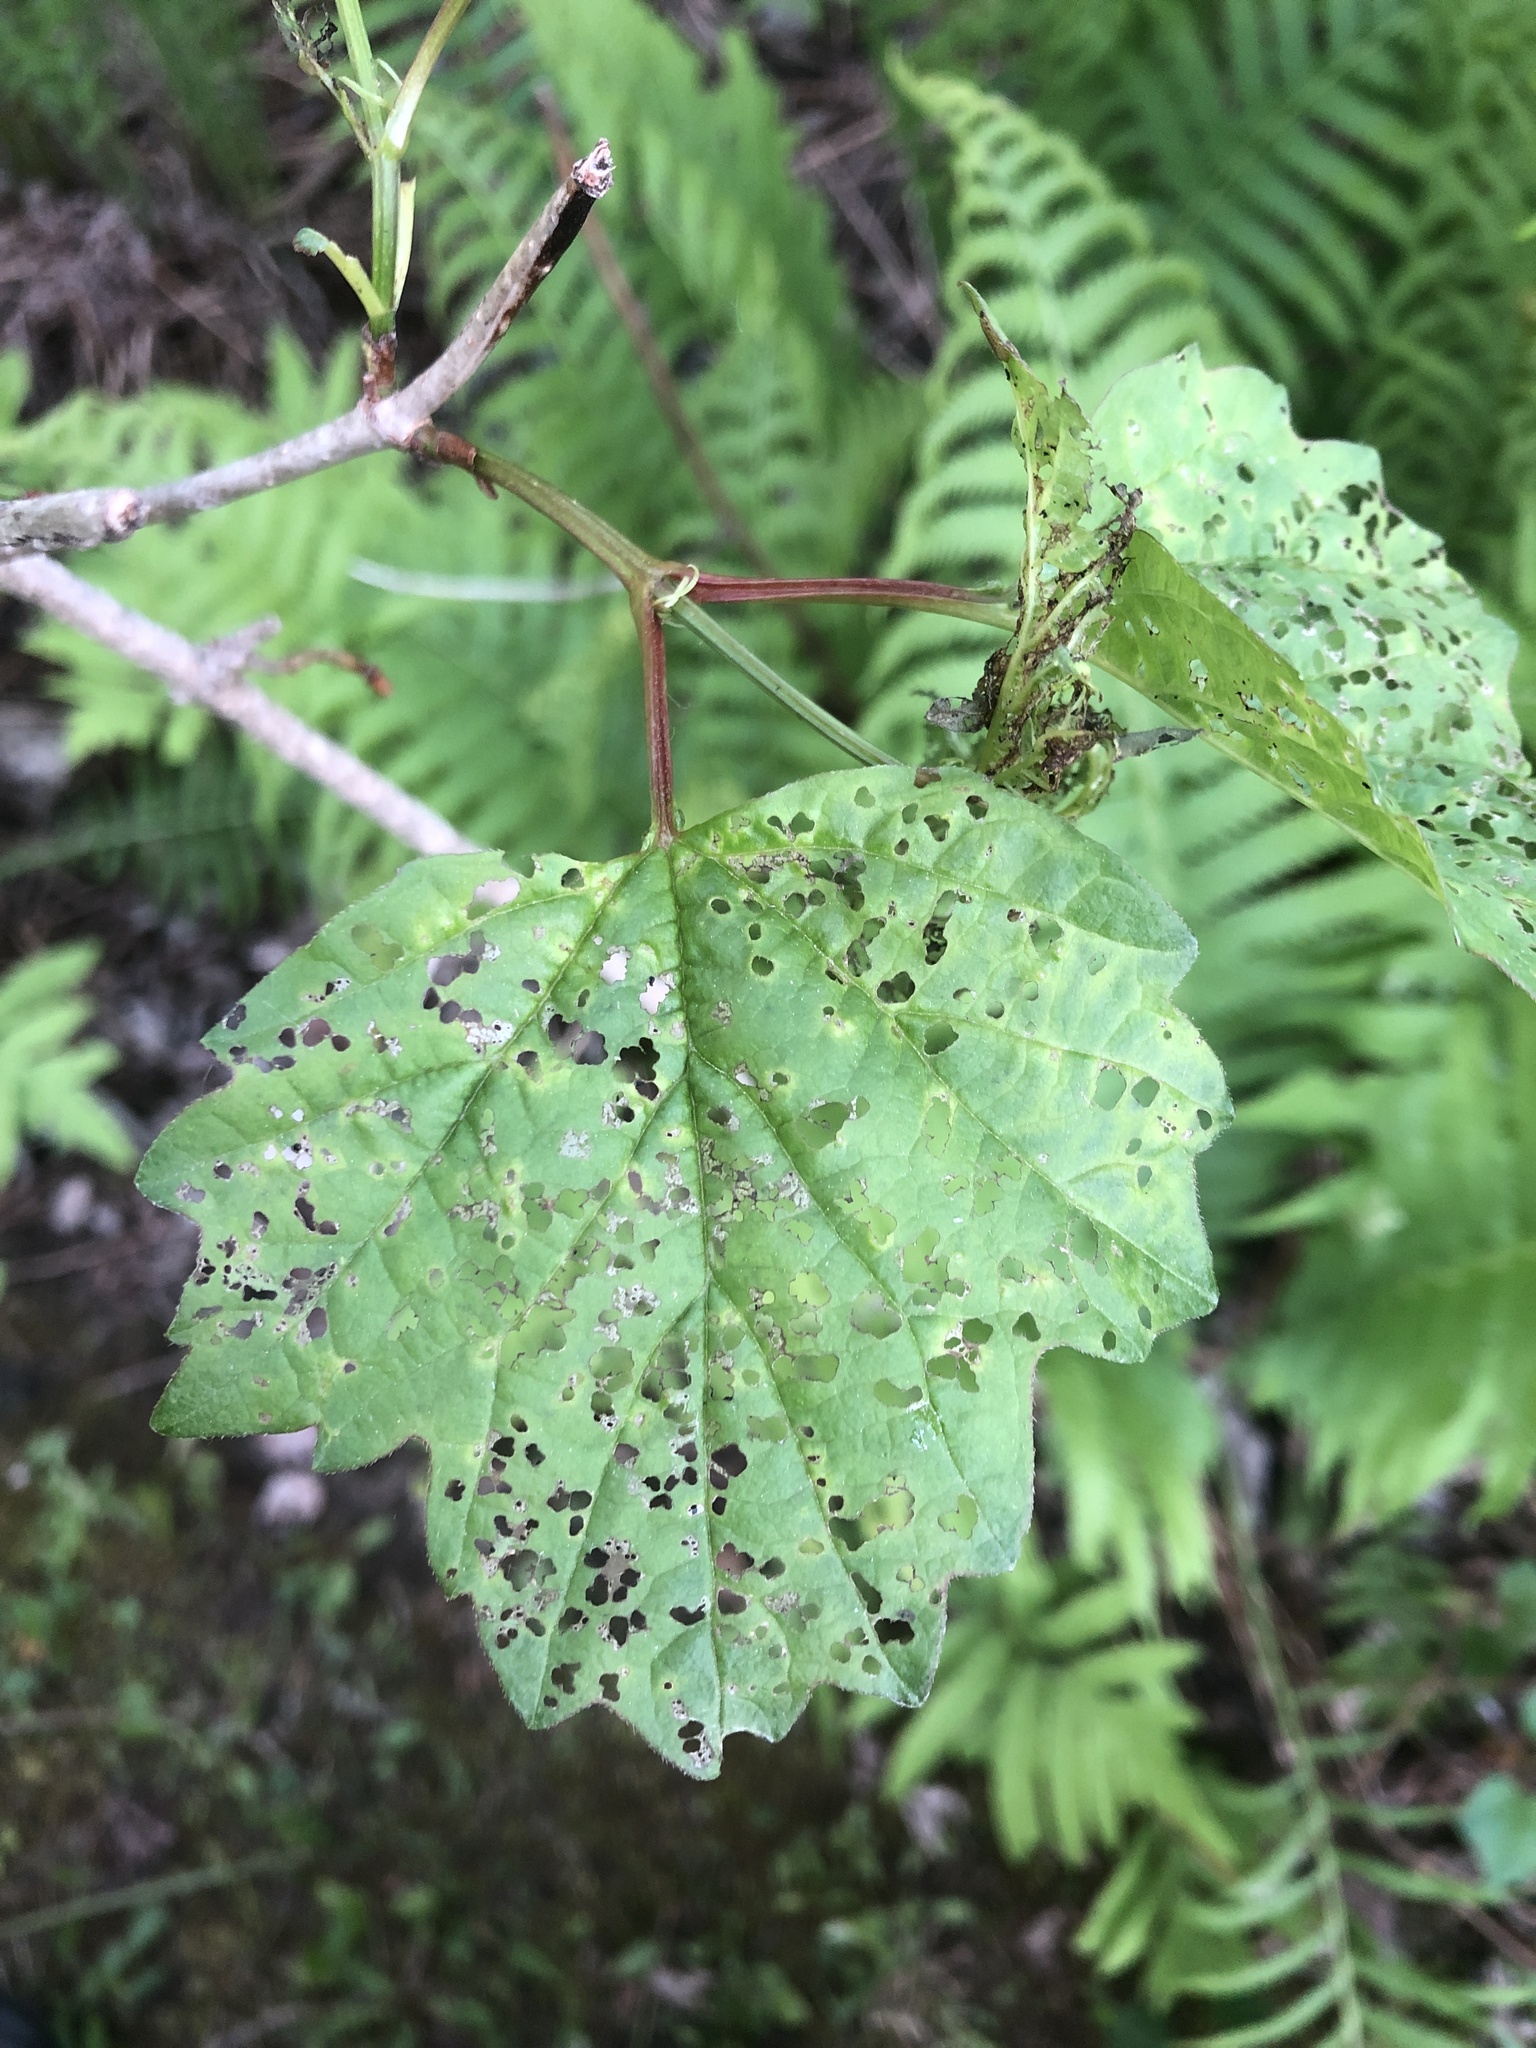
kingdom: Plantae
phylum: Tracheophyta
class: Magnoliopsida
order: Dipsacales
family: Viburnaceae
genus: Viburnum
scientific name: Viburnum opulus
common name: Guelder-rose
